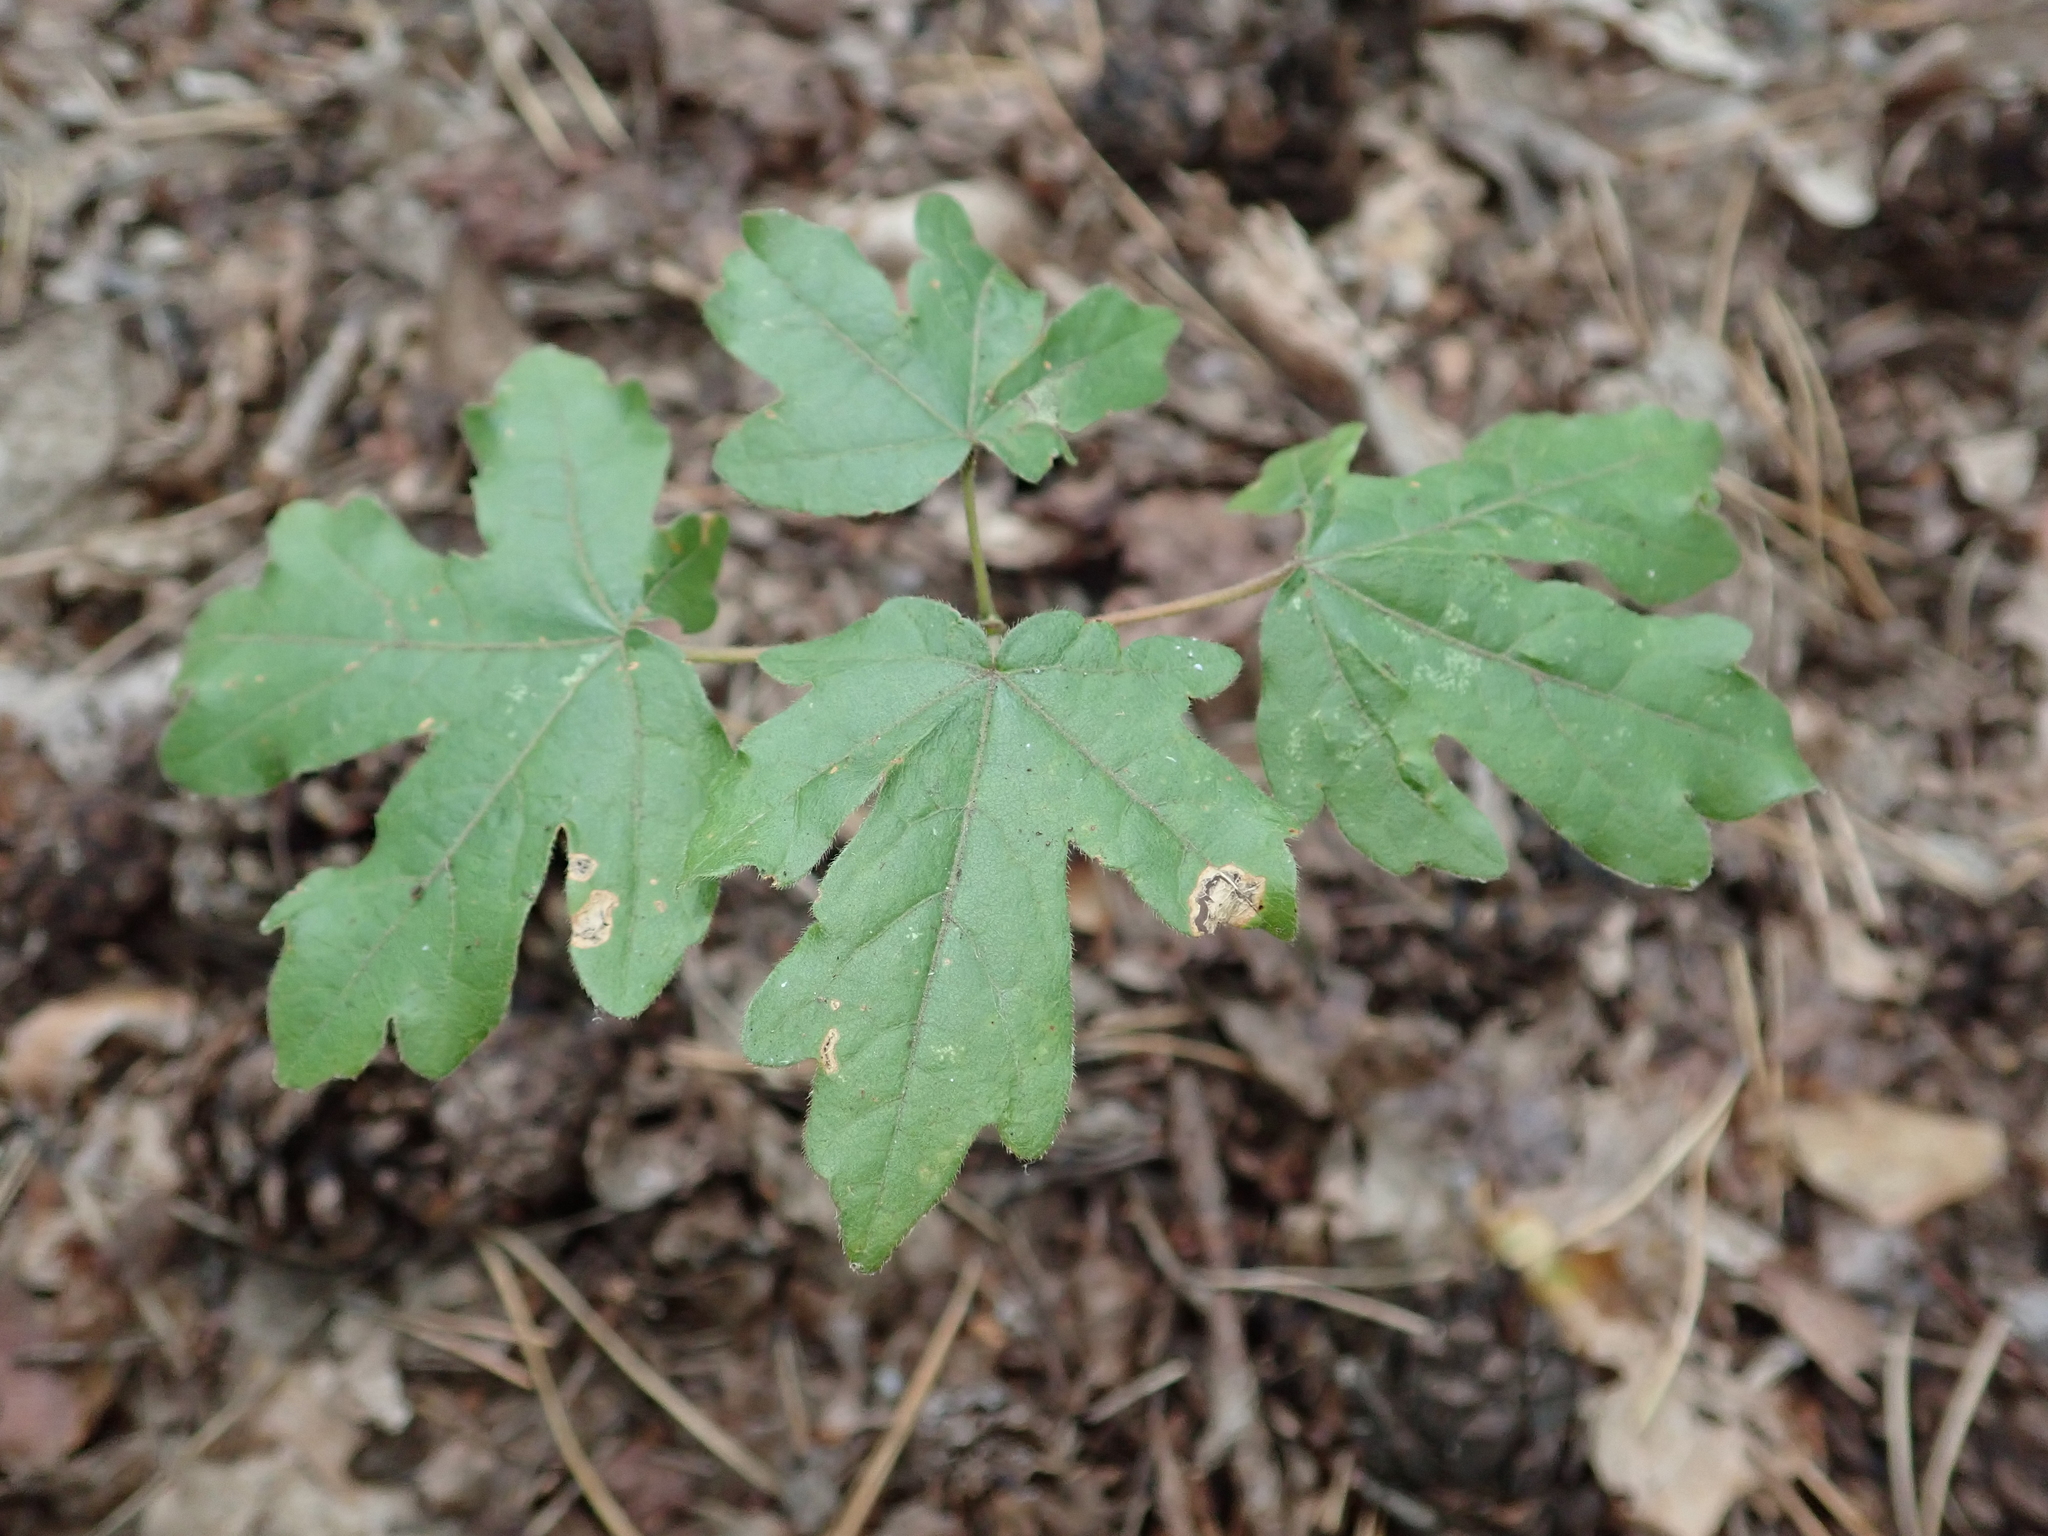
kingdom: Plantae
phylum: Tracheophyta
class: Magnoliopsida
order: Sapindales
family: Sapindaceae
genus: Acer
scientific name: Acer campestre
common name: Field maple
